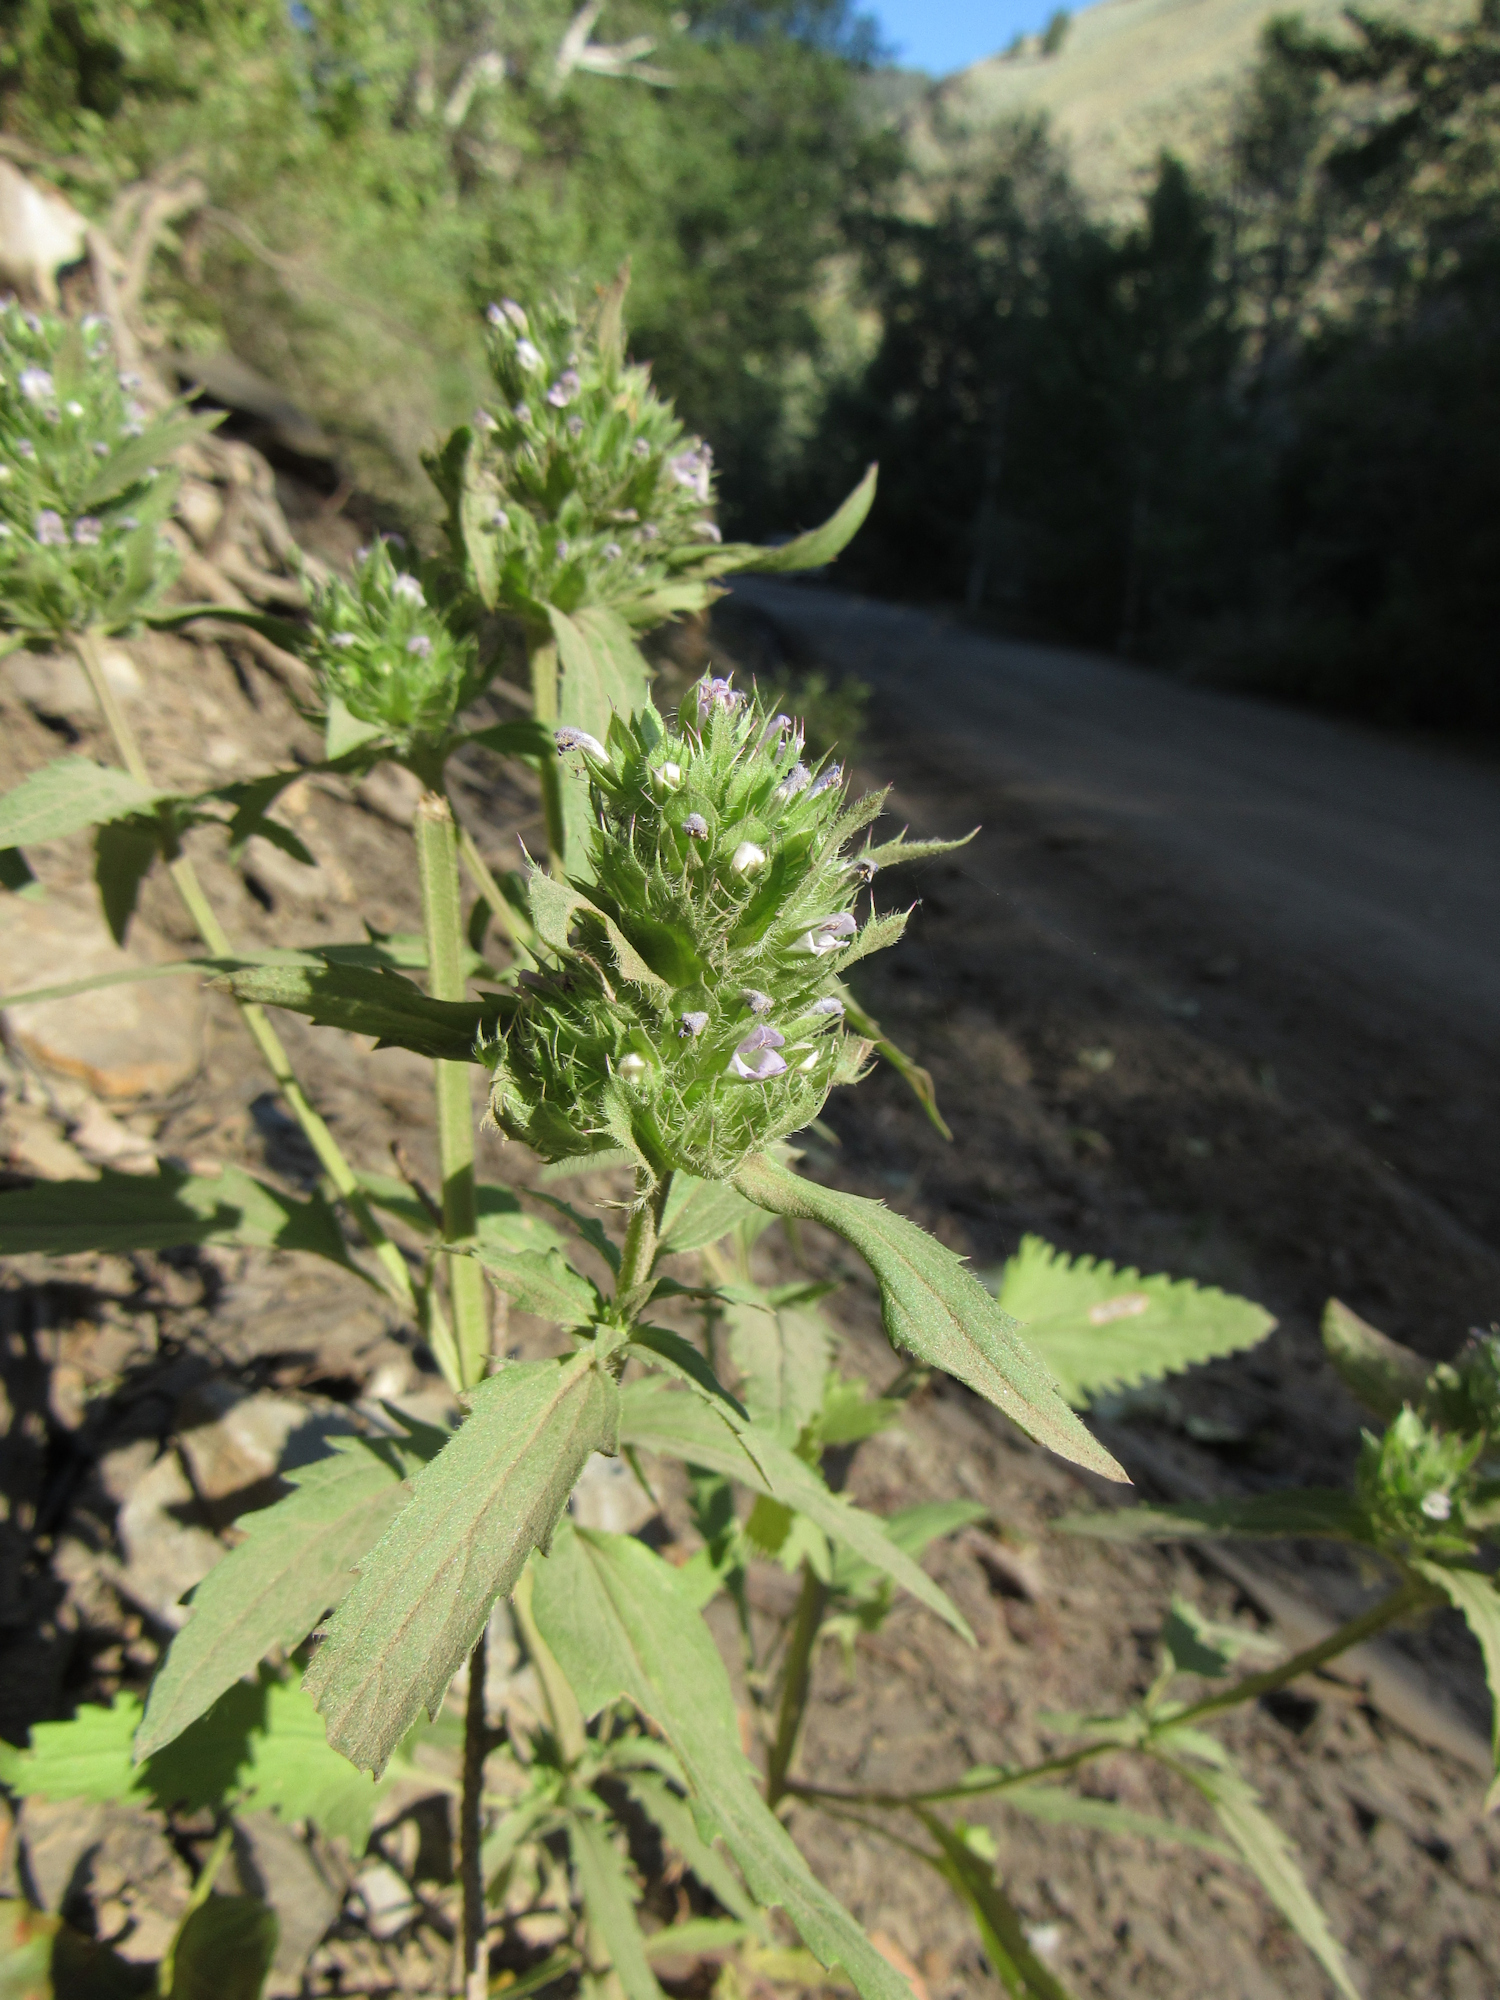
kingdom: Plantae
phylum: Tracheophyta
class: Magnoliopsida
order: Lamiales
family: Lamiaceae
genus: Dracocephalum
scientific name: Dracocephalum parviflorum
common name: American dragonhead
